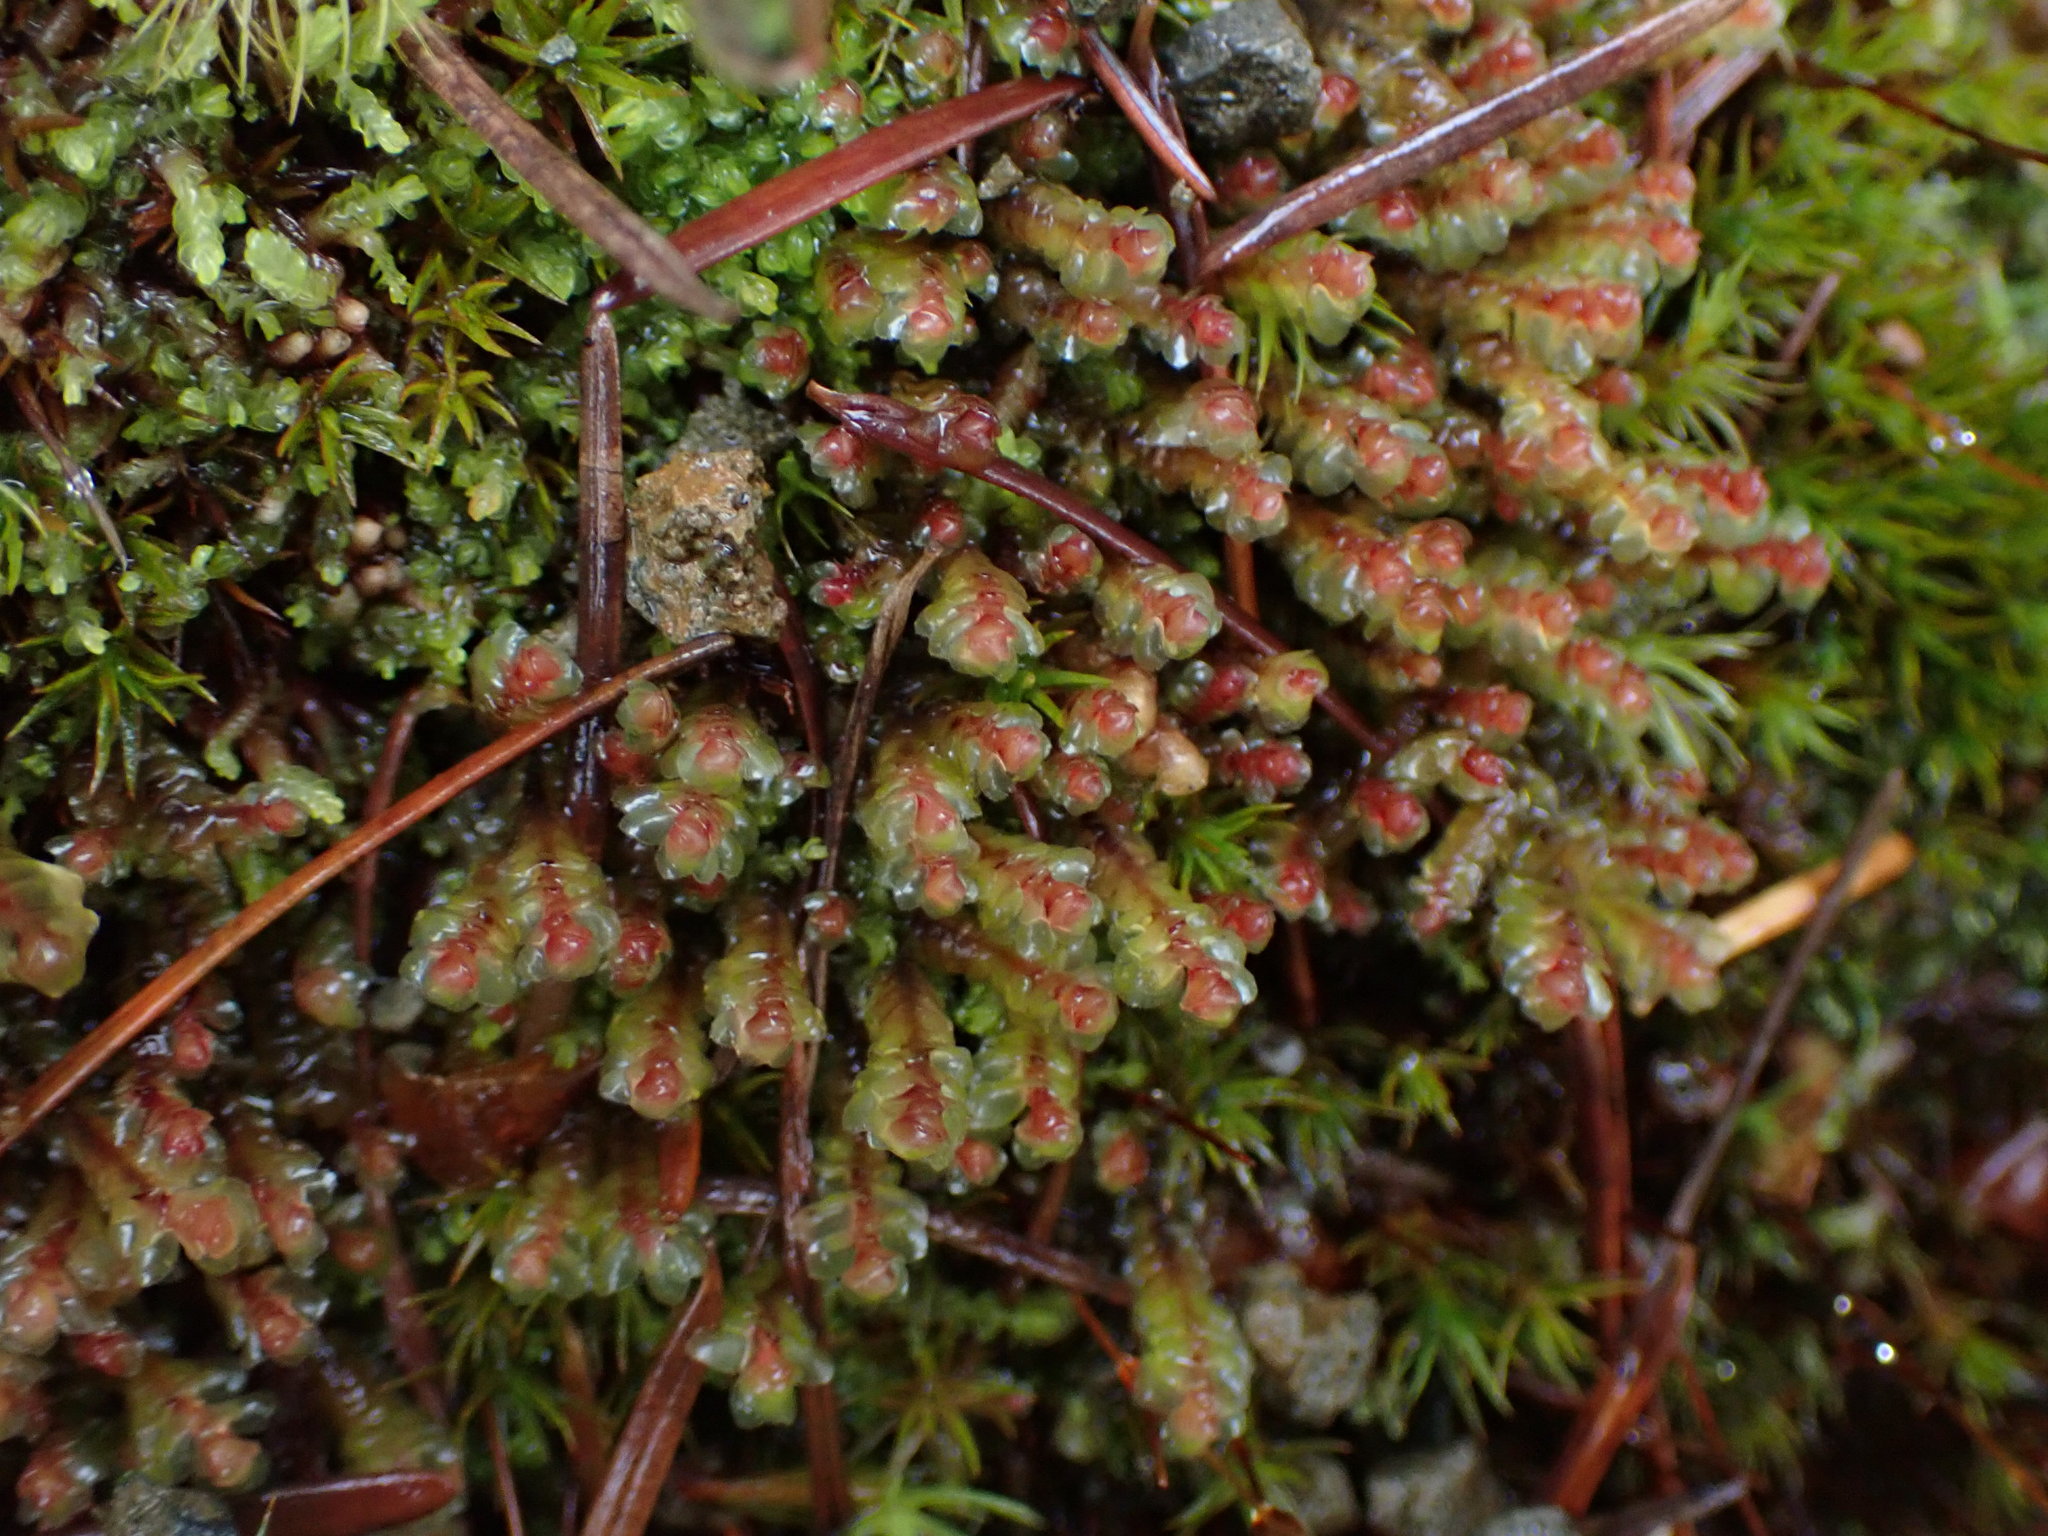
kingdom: Plantae
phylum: Marchantiophyta
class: Jungermanniopsida
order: Jungermanniales
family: Scapaniaceae
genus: Scapania
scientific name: Scapania americana
